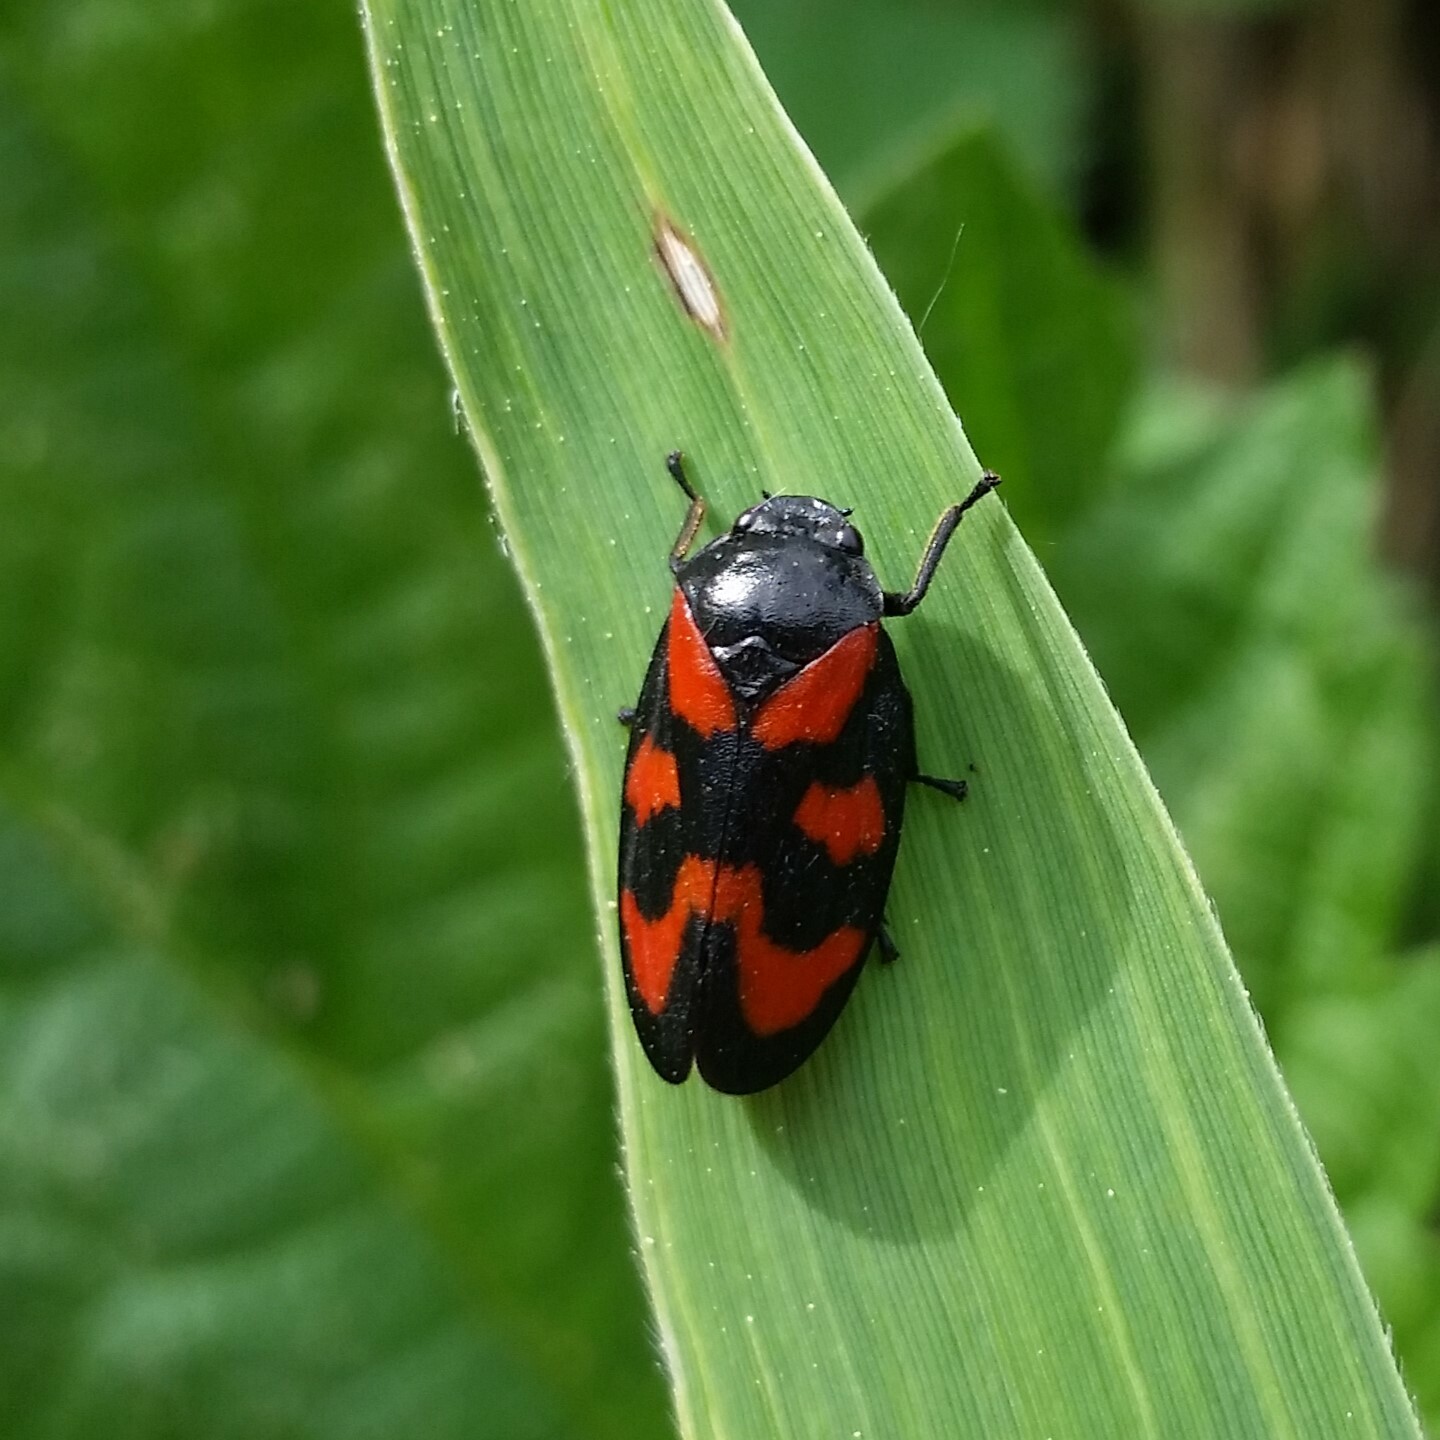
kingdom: Animalia
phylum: Arthropoda
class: Insecta
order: Hemiptera
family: Cercopidae
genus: Cercopis
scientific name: Cercopis vulnerata
